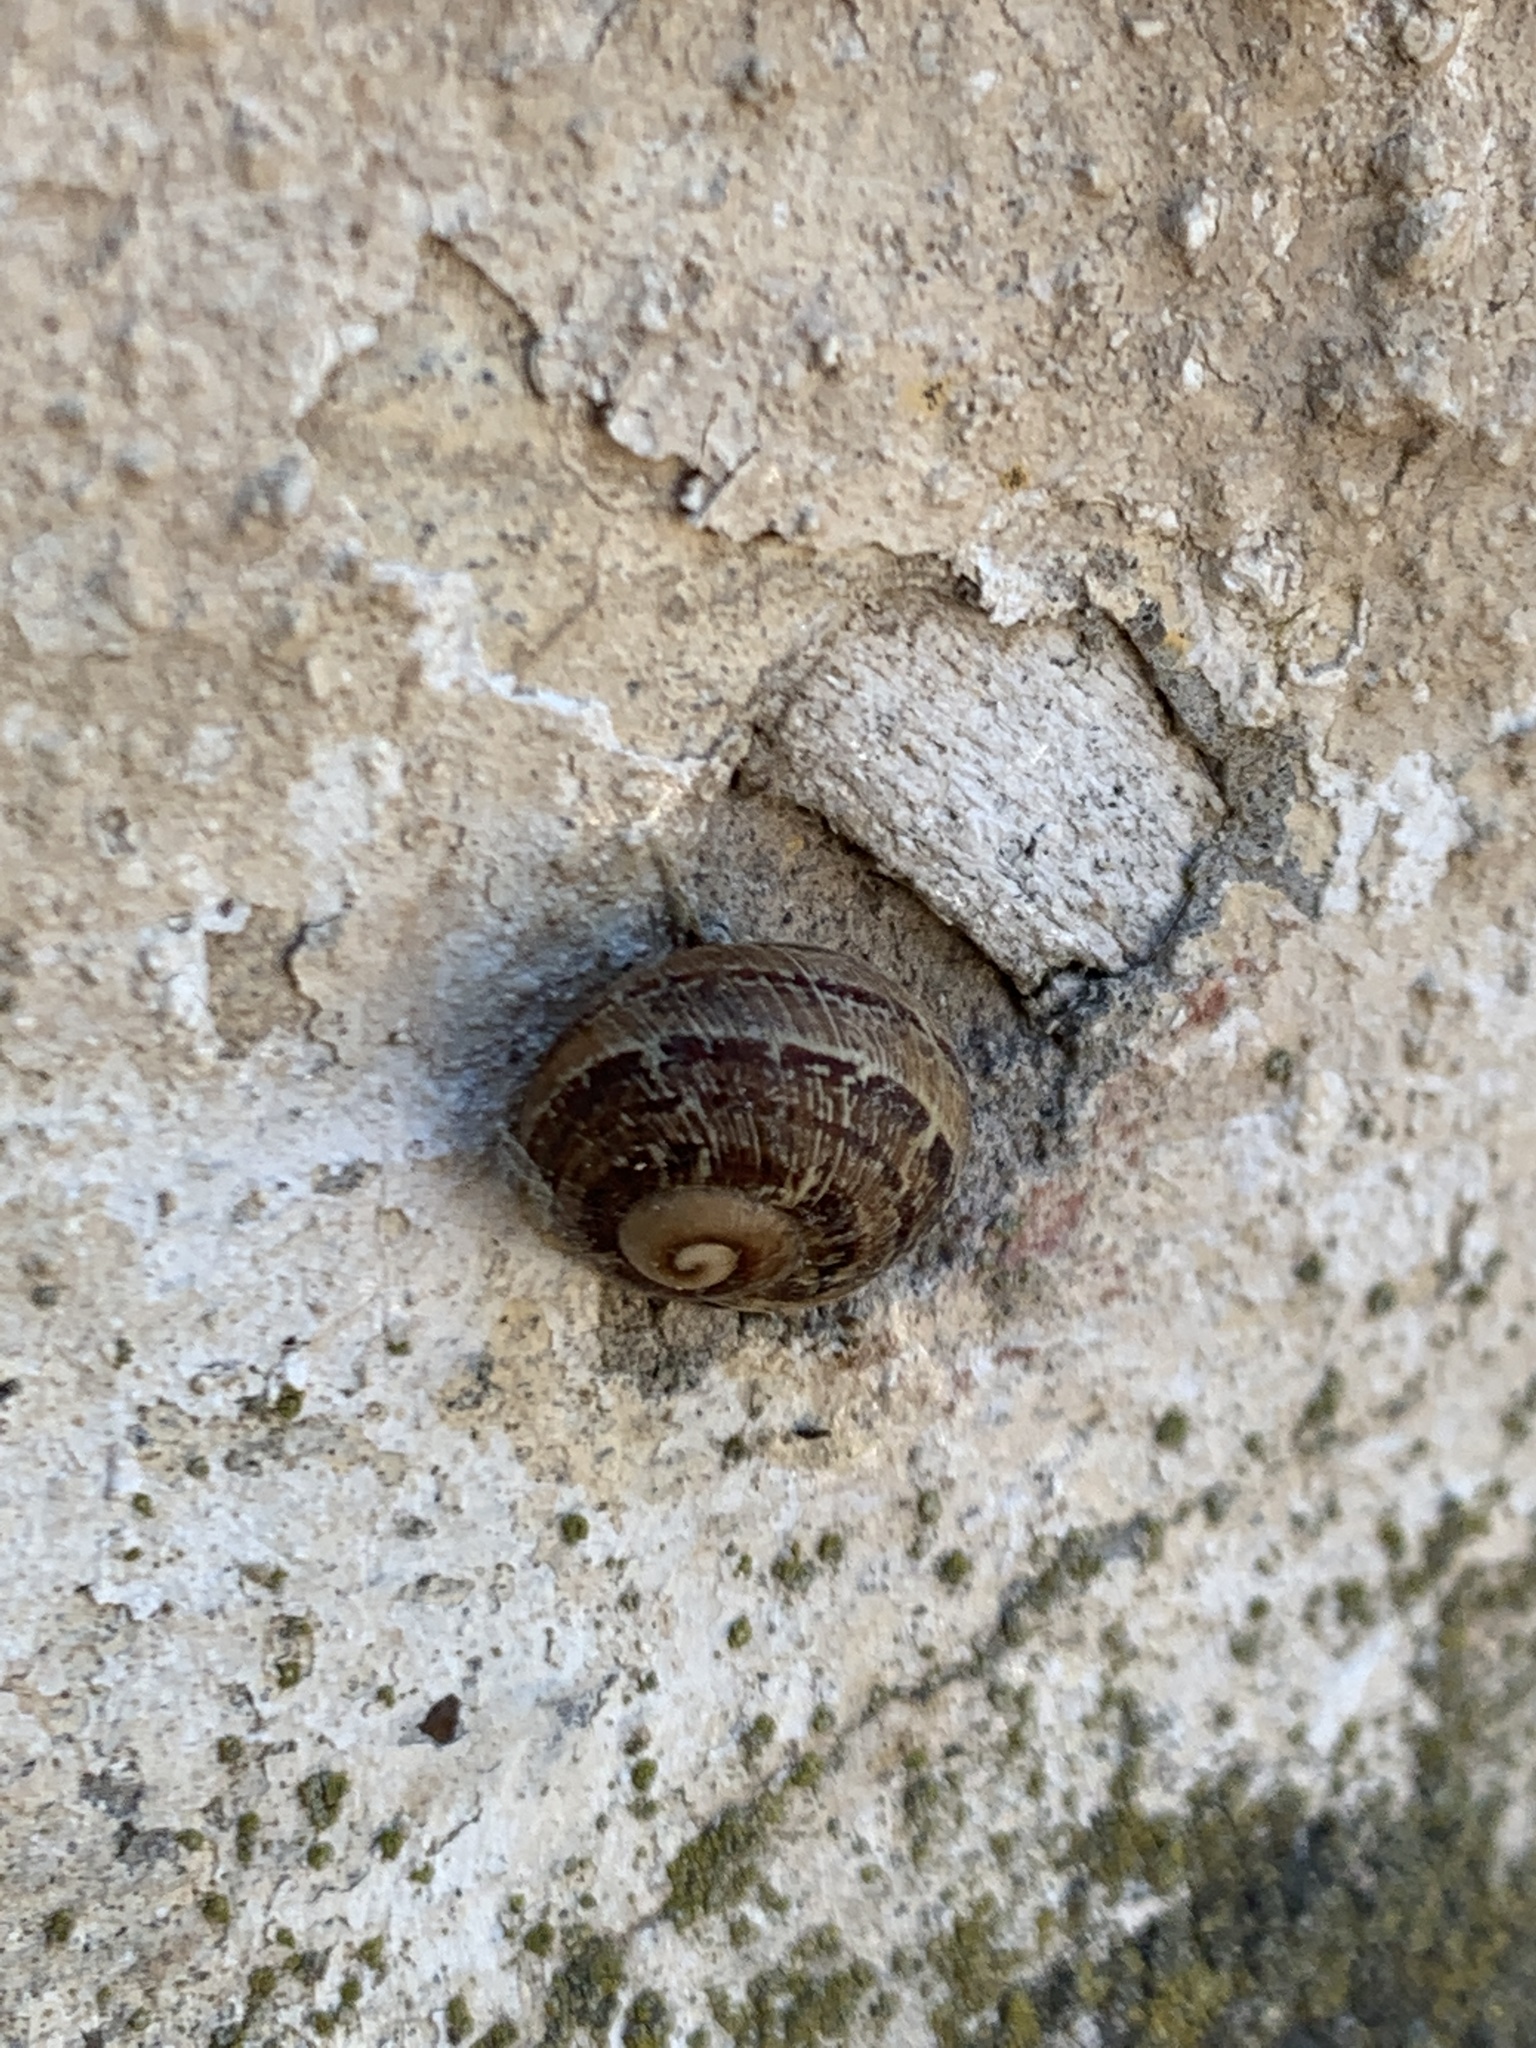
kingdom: Animalia
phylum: Mollusca
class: Gastropoda
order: Stylommatophora
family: Helicidae
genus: Cornu
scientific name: Cornu aspersum
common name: Brown garden snail
